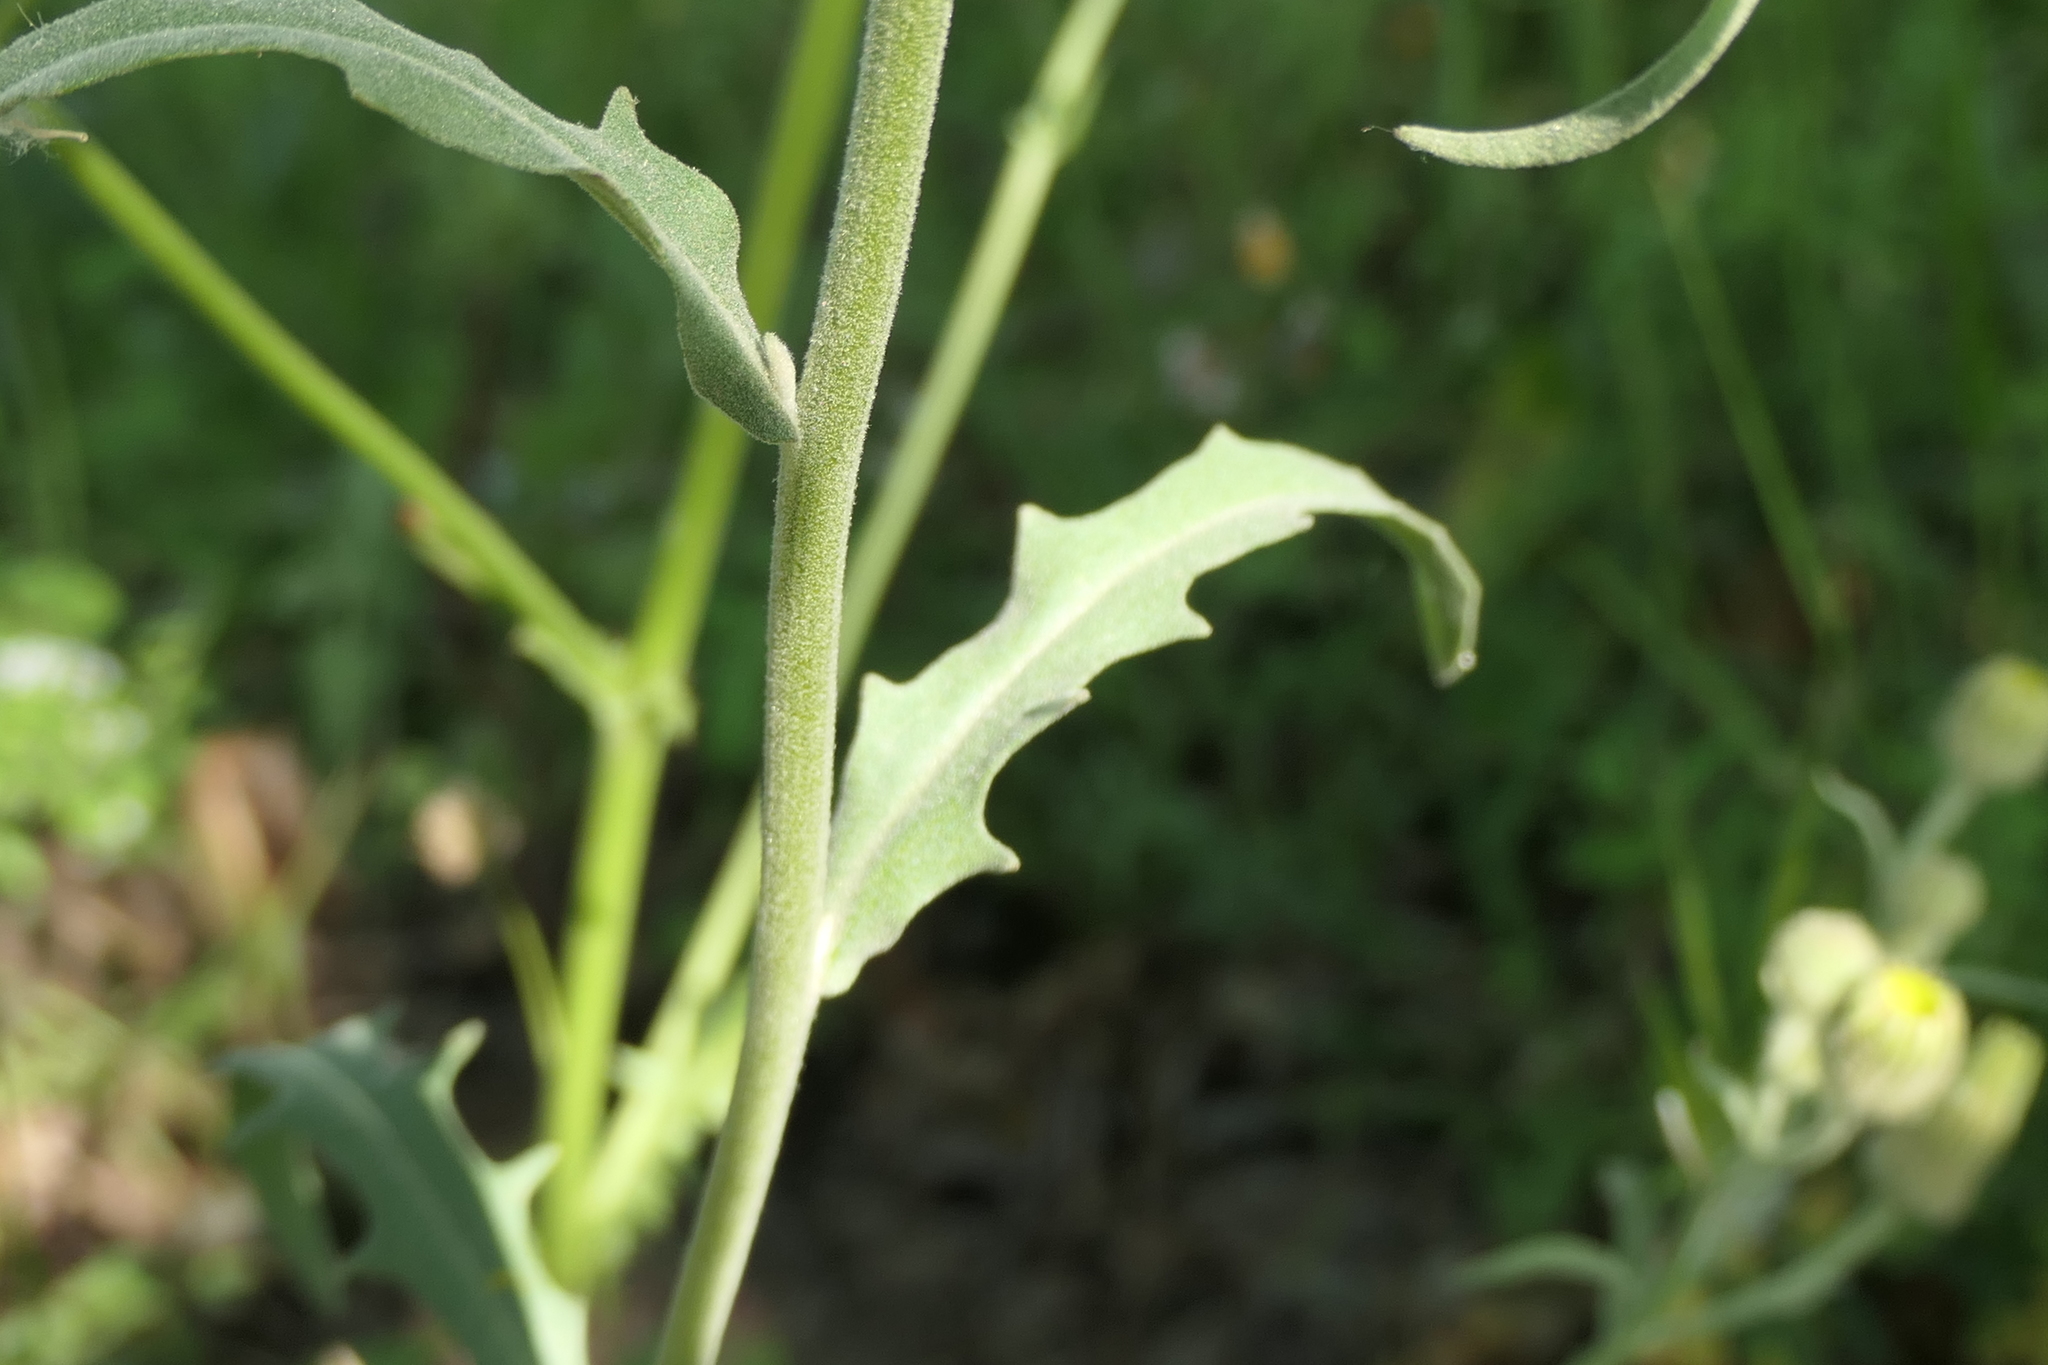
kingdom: Plantae
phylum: Tracheophyta
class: Magnoliopsida
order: Asterales
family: Asteraceae
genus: Andryala
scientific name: Andryala integrifolia
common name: Common andryala
